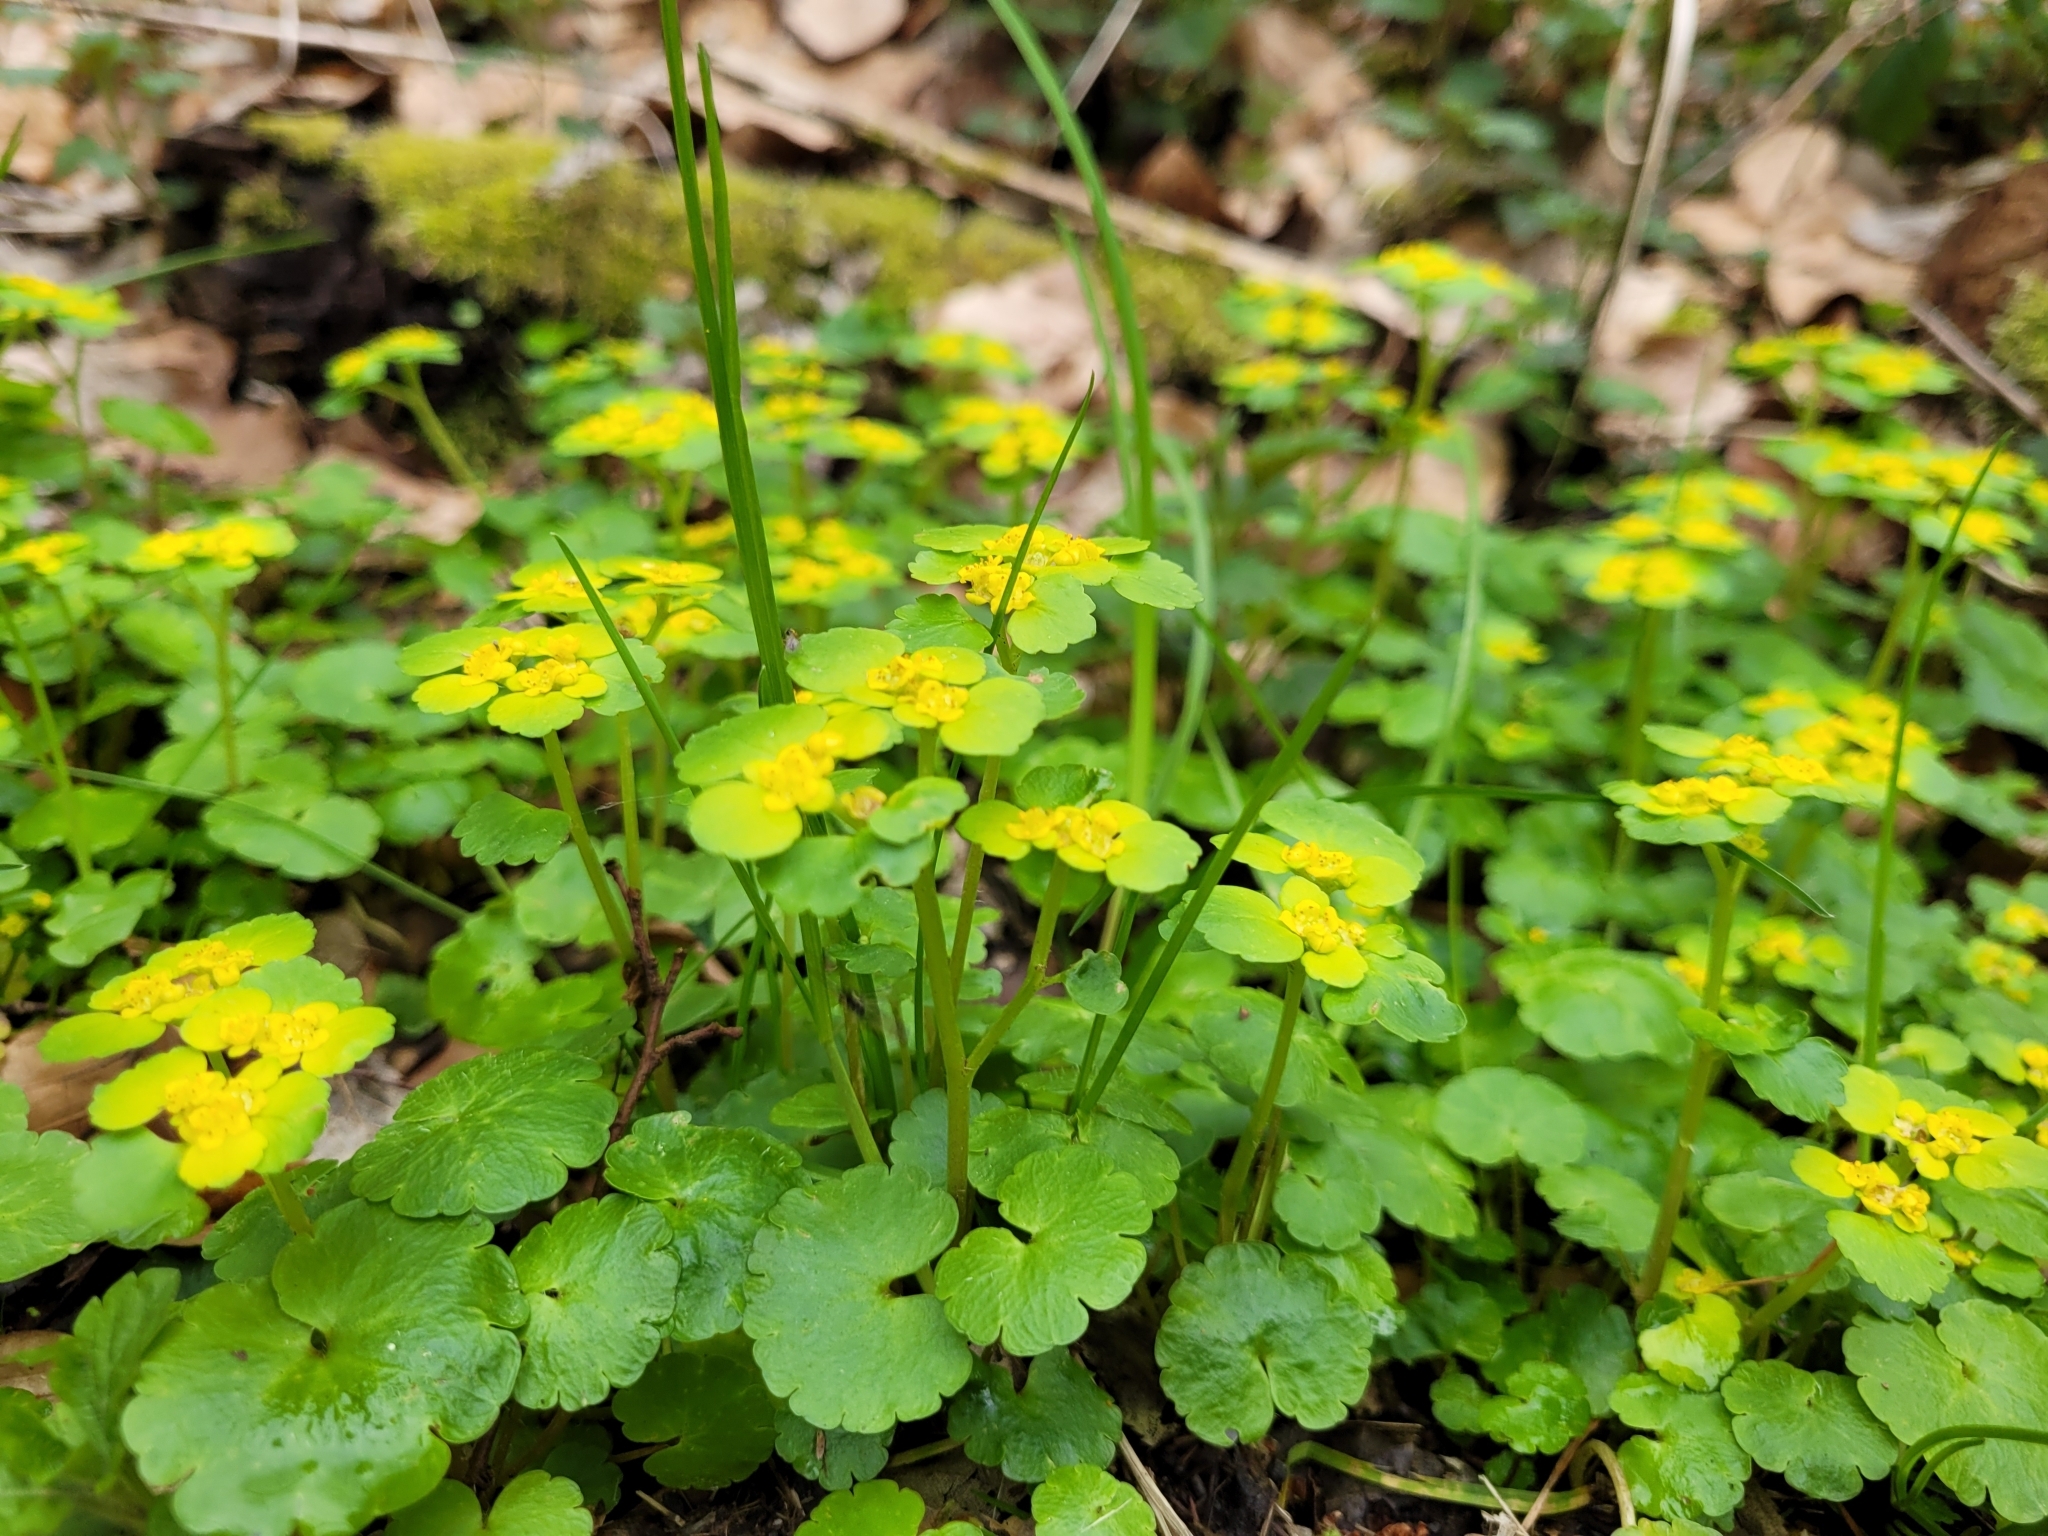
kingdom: Plantae
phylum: Tracheophyta
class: Magnoliopsida
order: Saxifragales
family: Saxifragaceae
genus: Chrysosplenium
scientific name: Chrysosplenium alternifolium
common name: Alternate-leaved golden-saxifrage
